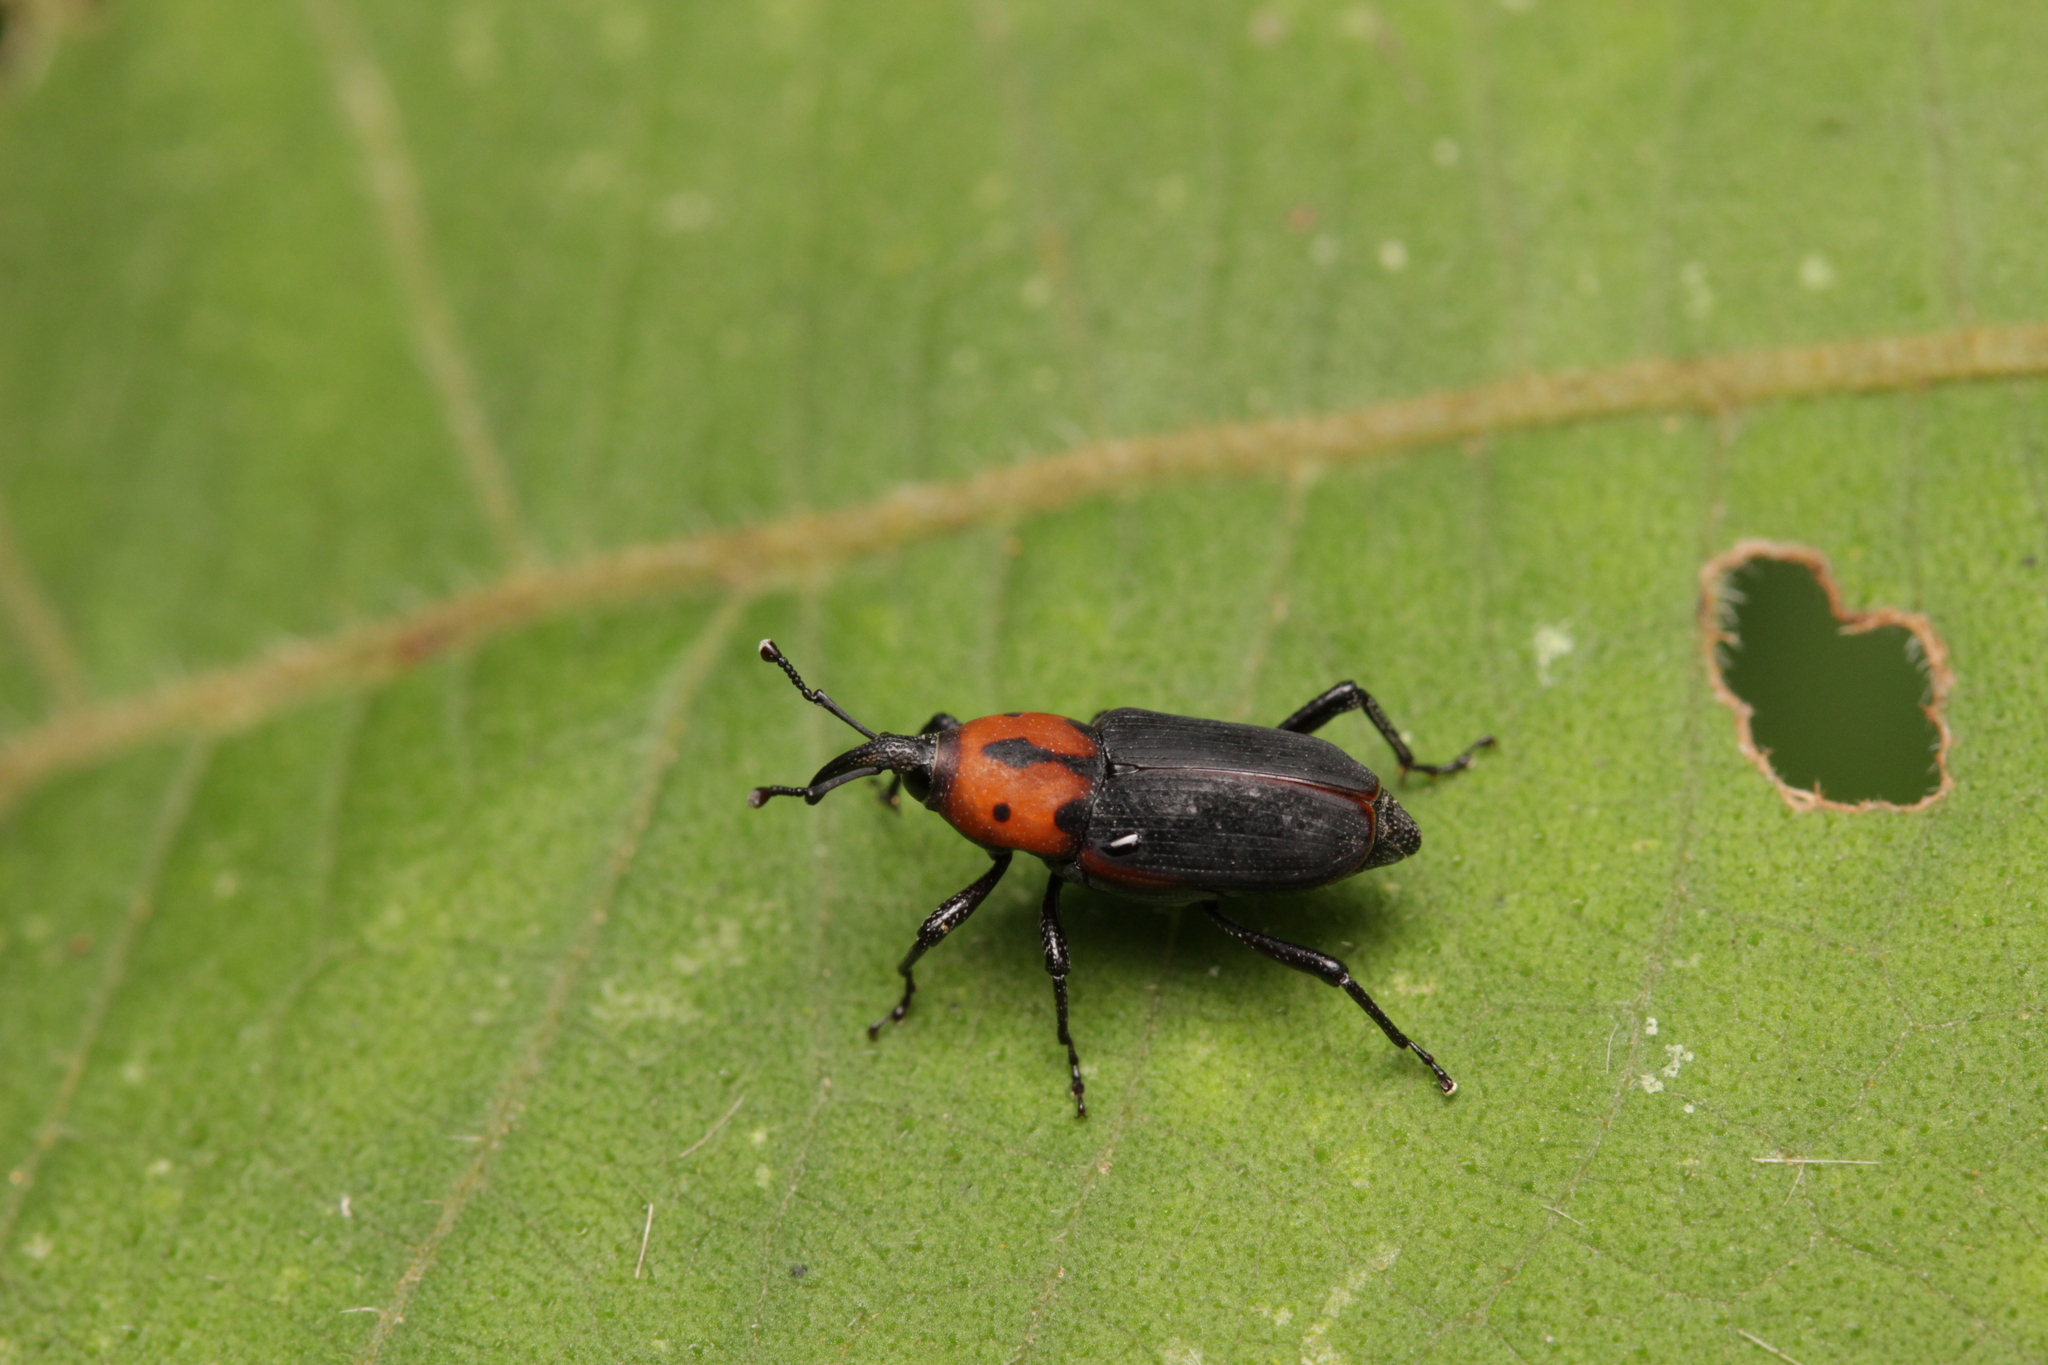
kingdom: Animalia
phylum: Arthropoda
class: Insecta
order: Coleoptera
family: Dryophthoridae
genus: Rhodobaenus
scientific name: Rhodobaenus auctus
